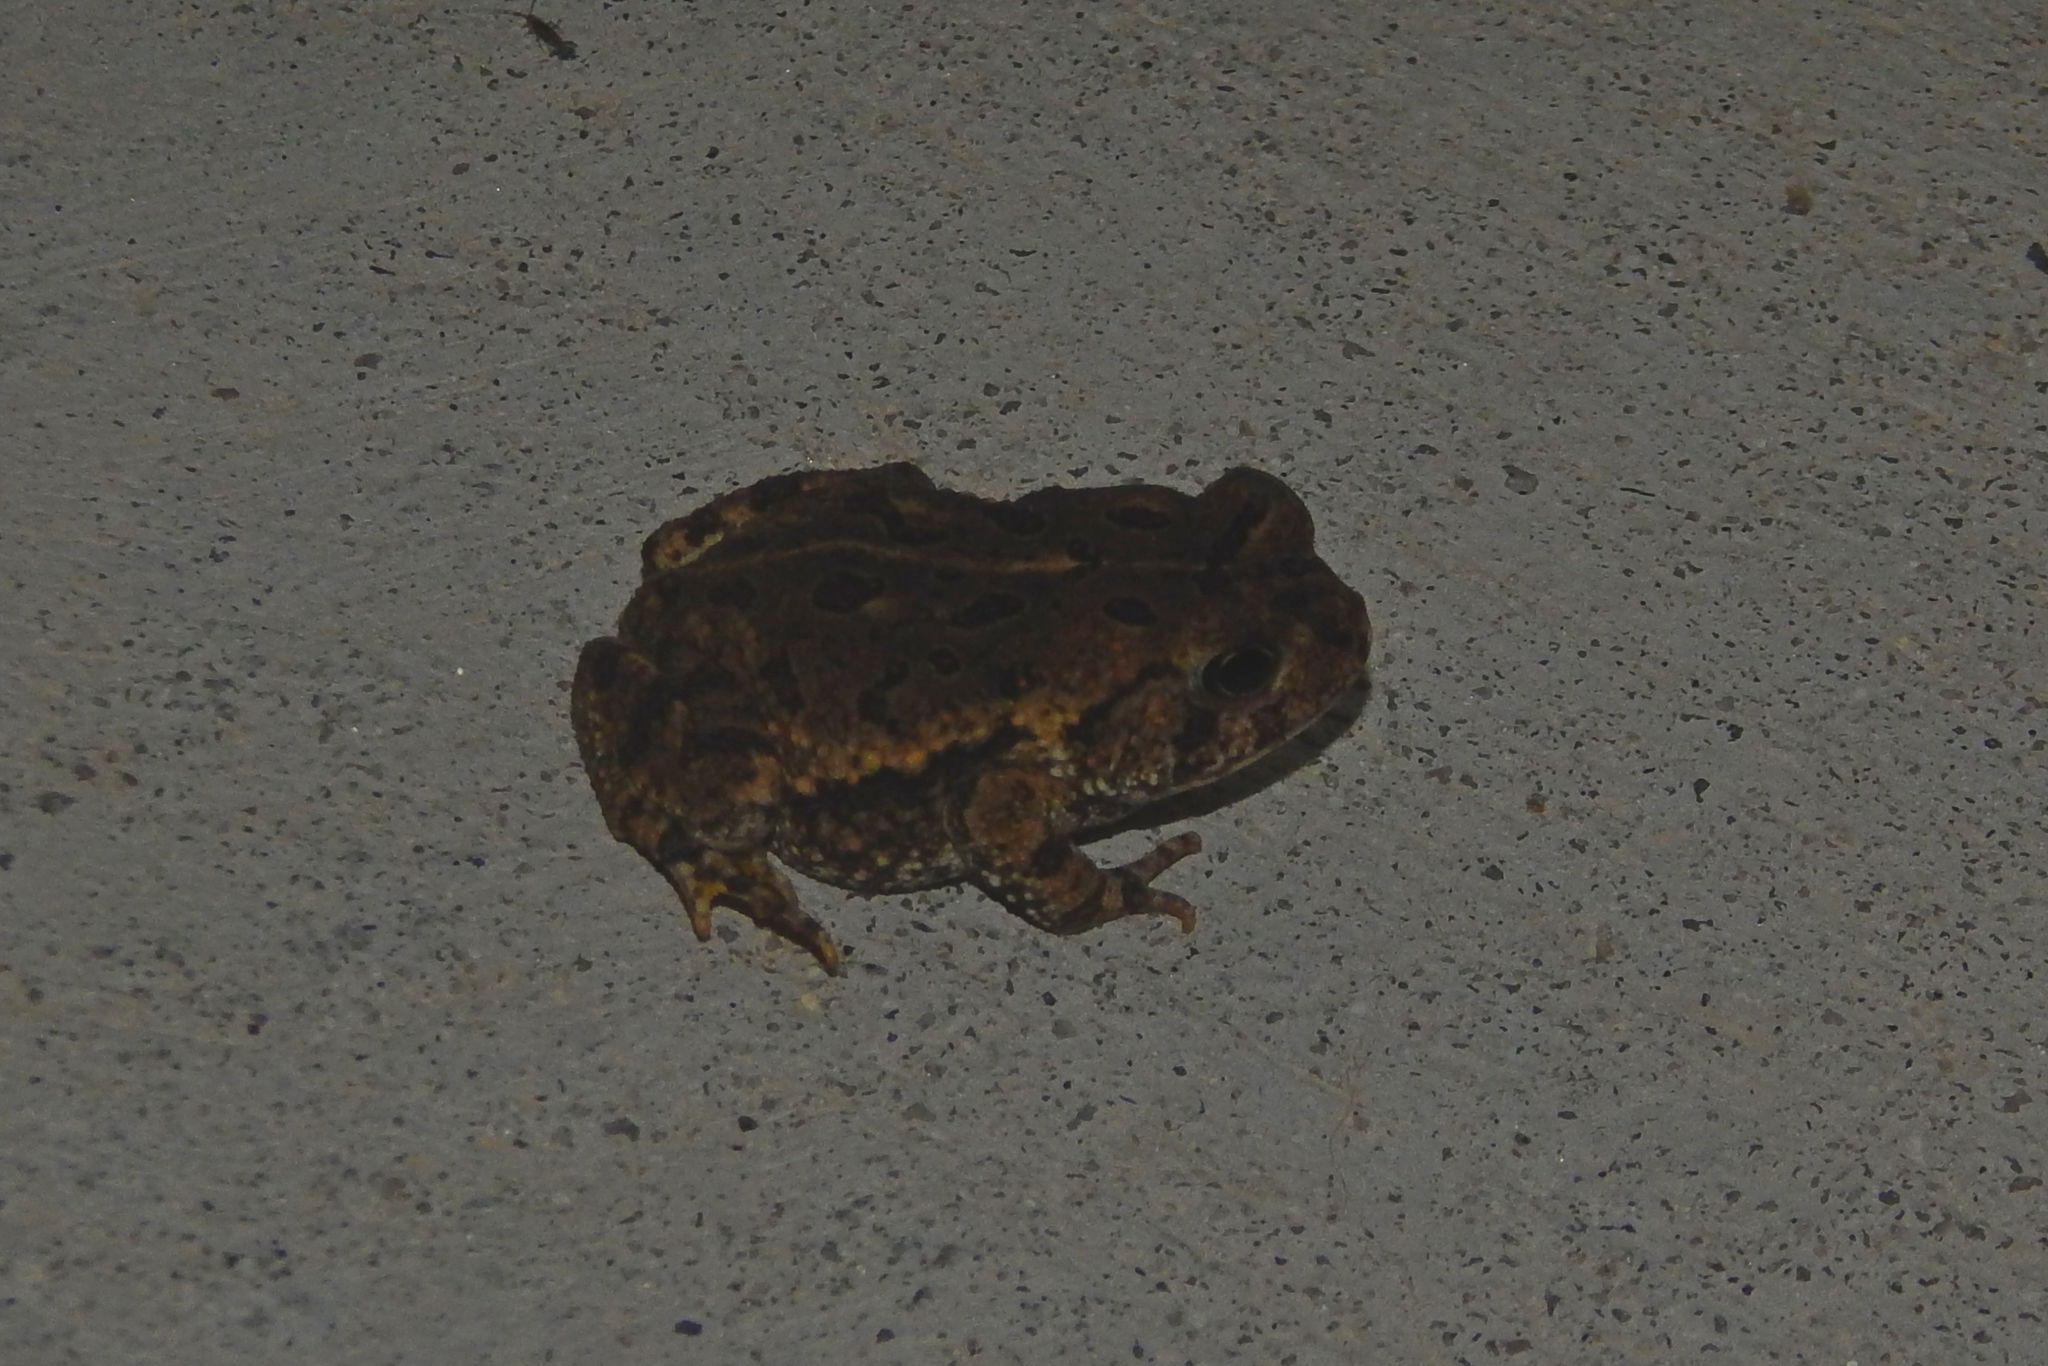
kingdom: Animalia
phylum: Chordata
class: Amphibia
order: Anura
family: Bufonidae
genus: Anaxyrus
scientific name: Anaxyrus fowleri
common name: Fowler's toad
